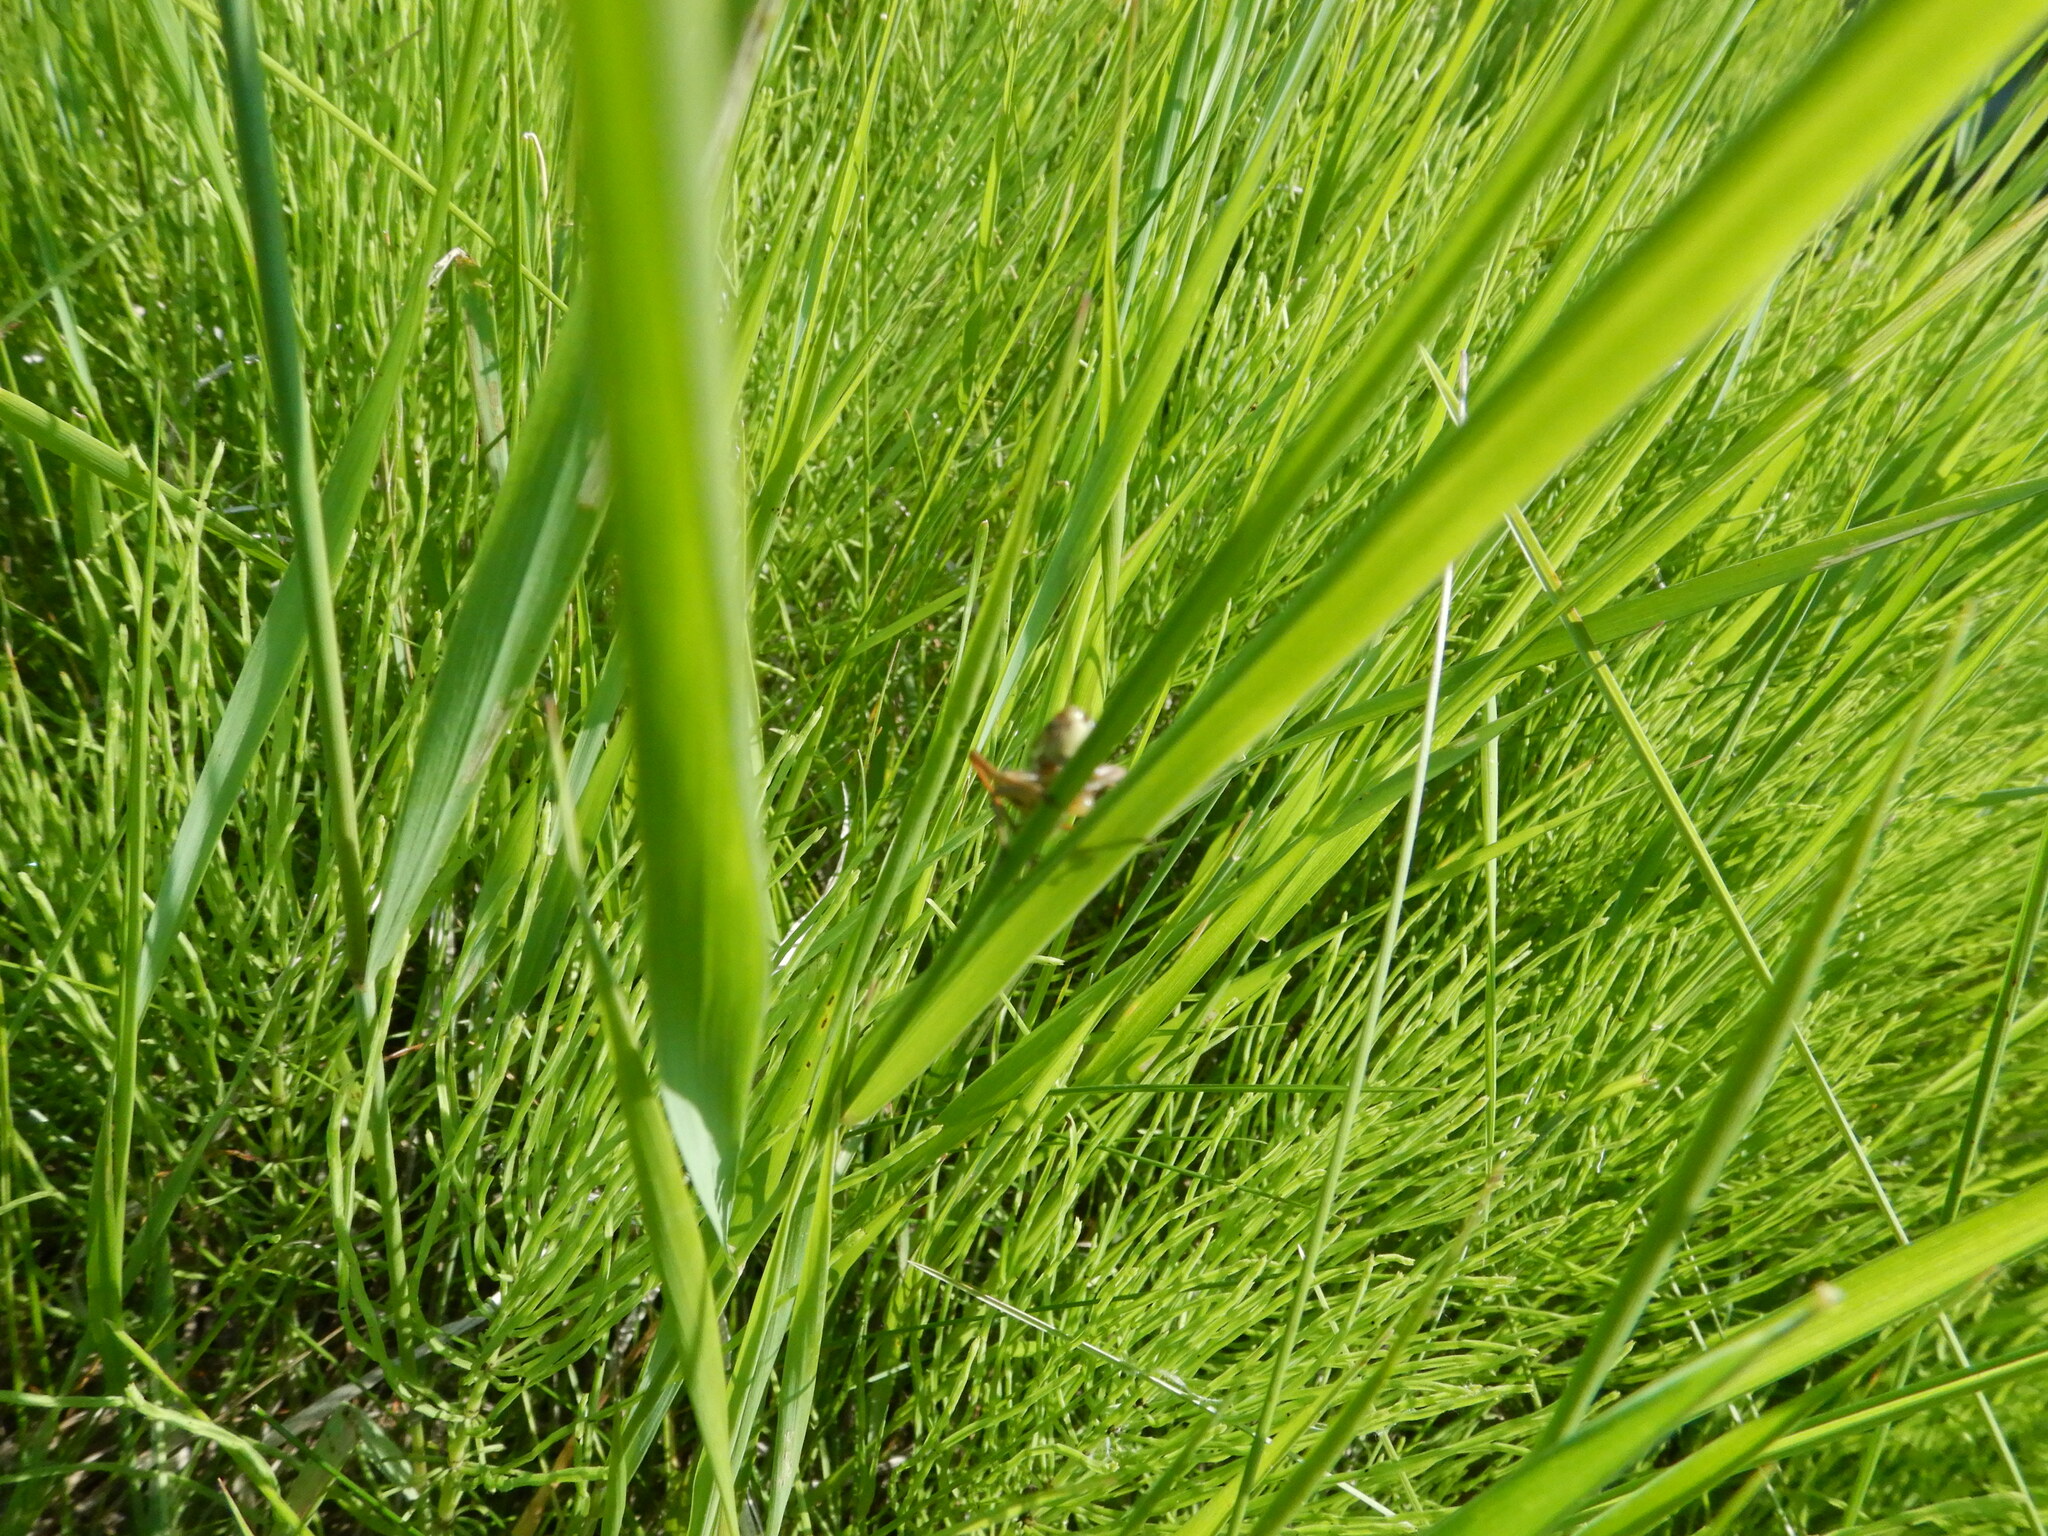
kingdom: Animalia
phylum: Arthropoda
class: Insecta
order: Orthoptera
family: Tettigoniidae
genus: Roeseliana
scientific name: Roeseliana roeselii
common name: Roesel's bush cricket
